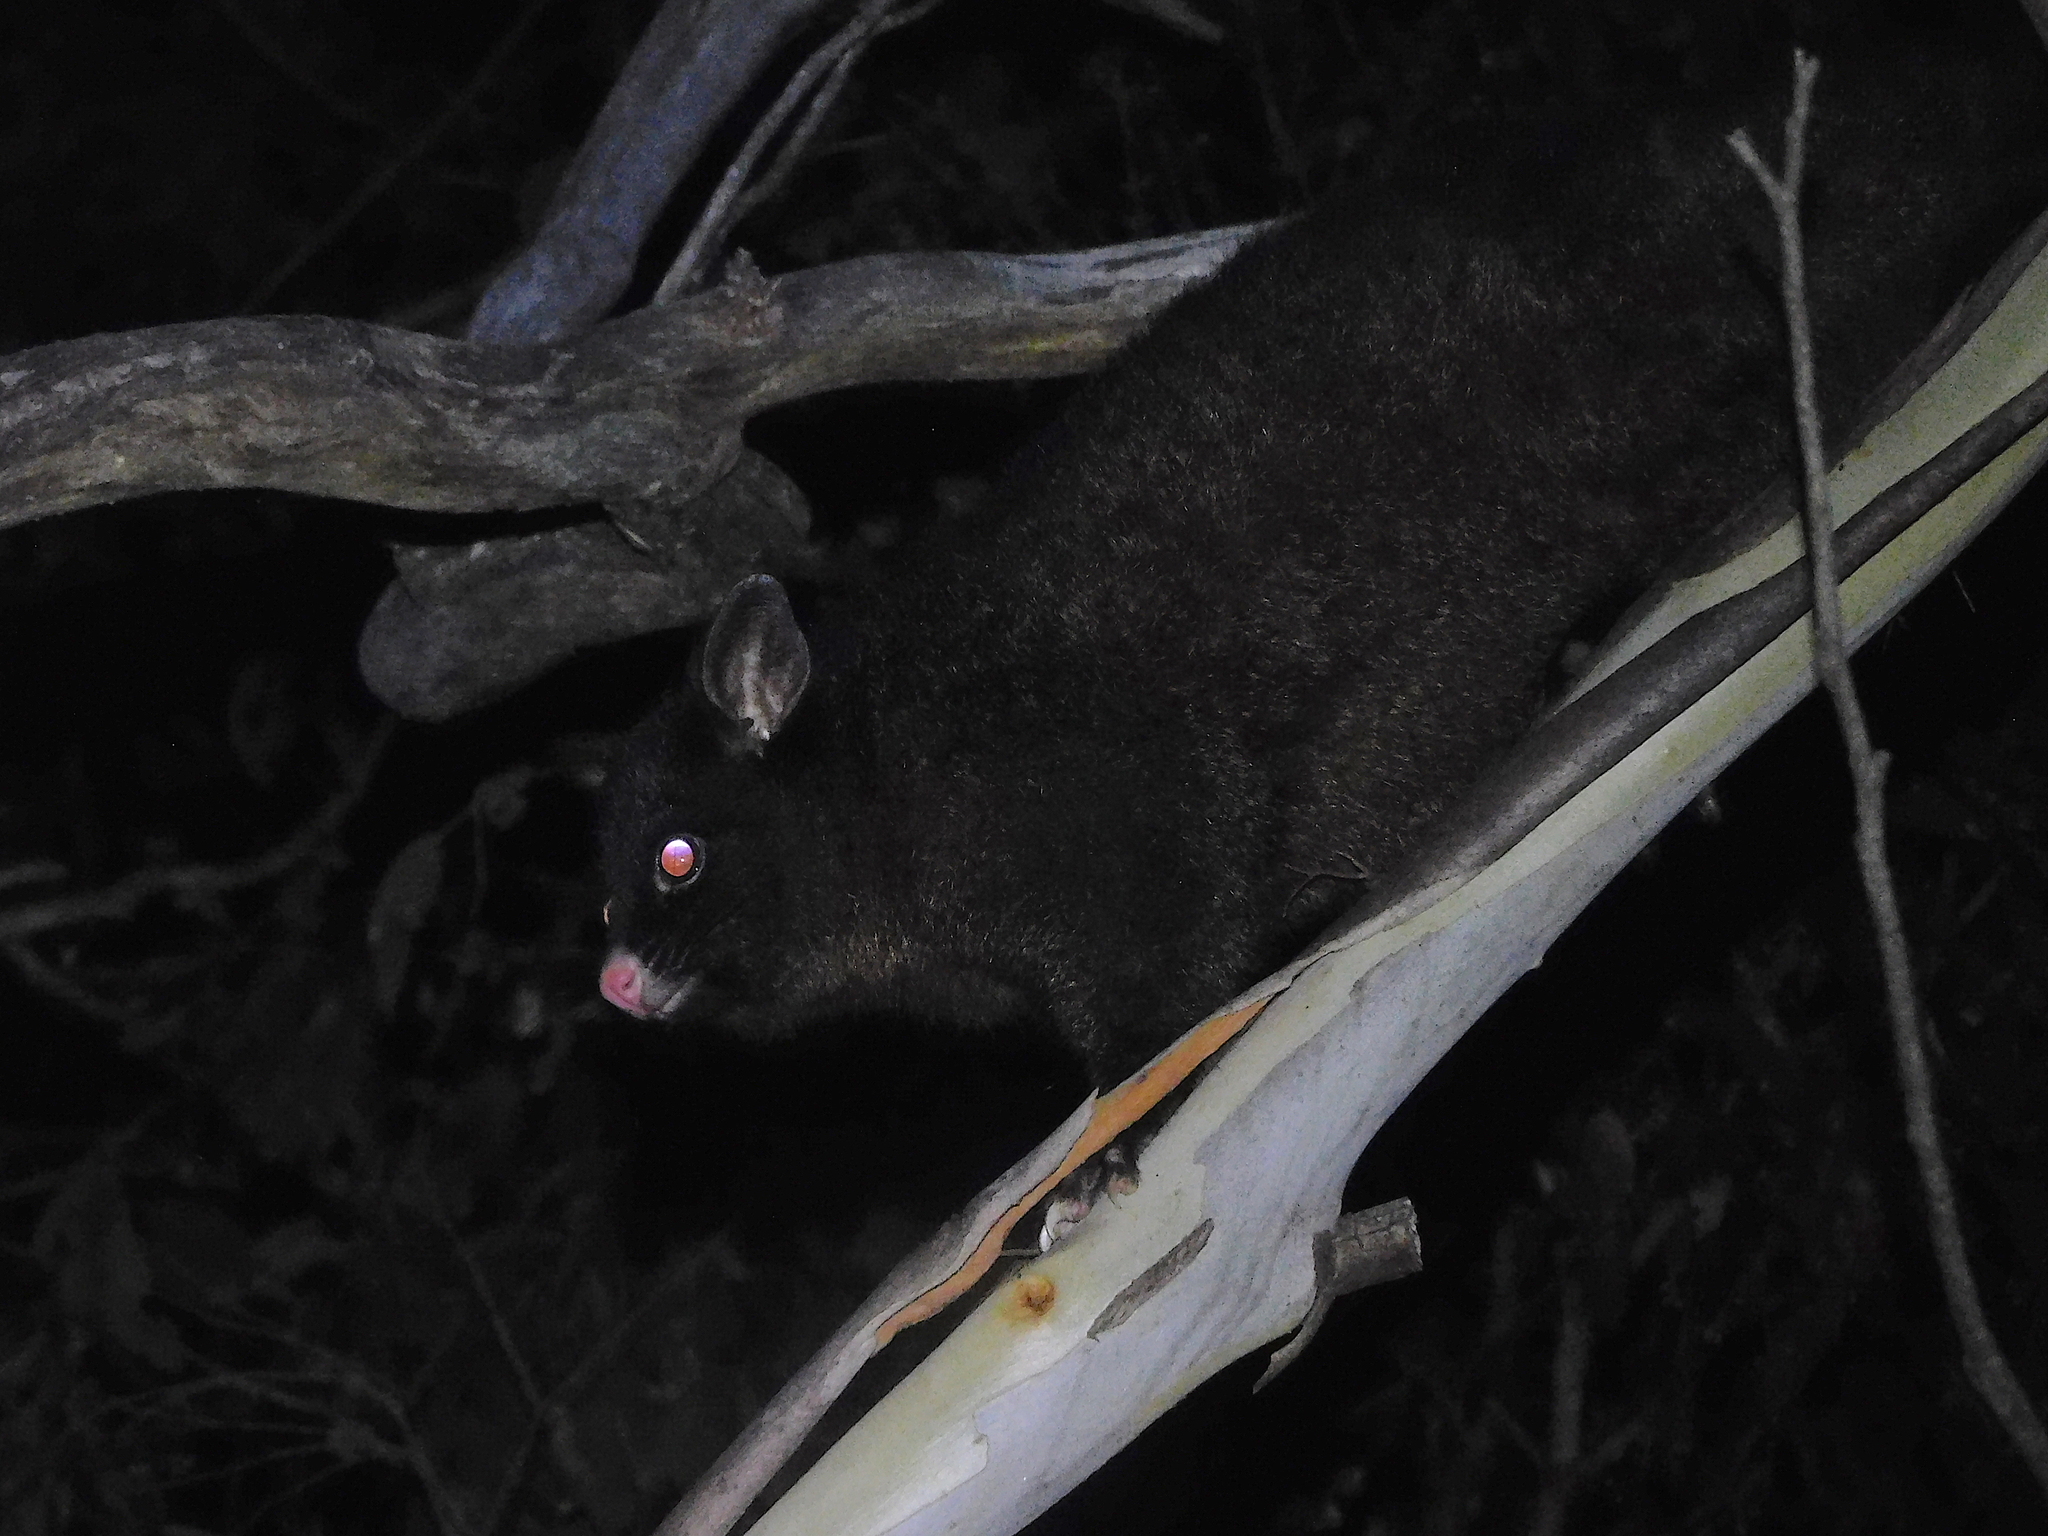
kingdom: Animalia
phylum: Chordata
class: Mammalia
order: Diprotodontia
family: Phalangeridae
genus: Trichosurus
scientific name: Trichosurus vulpecula
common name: Common brushtail
